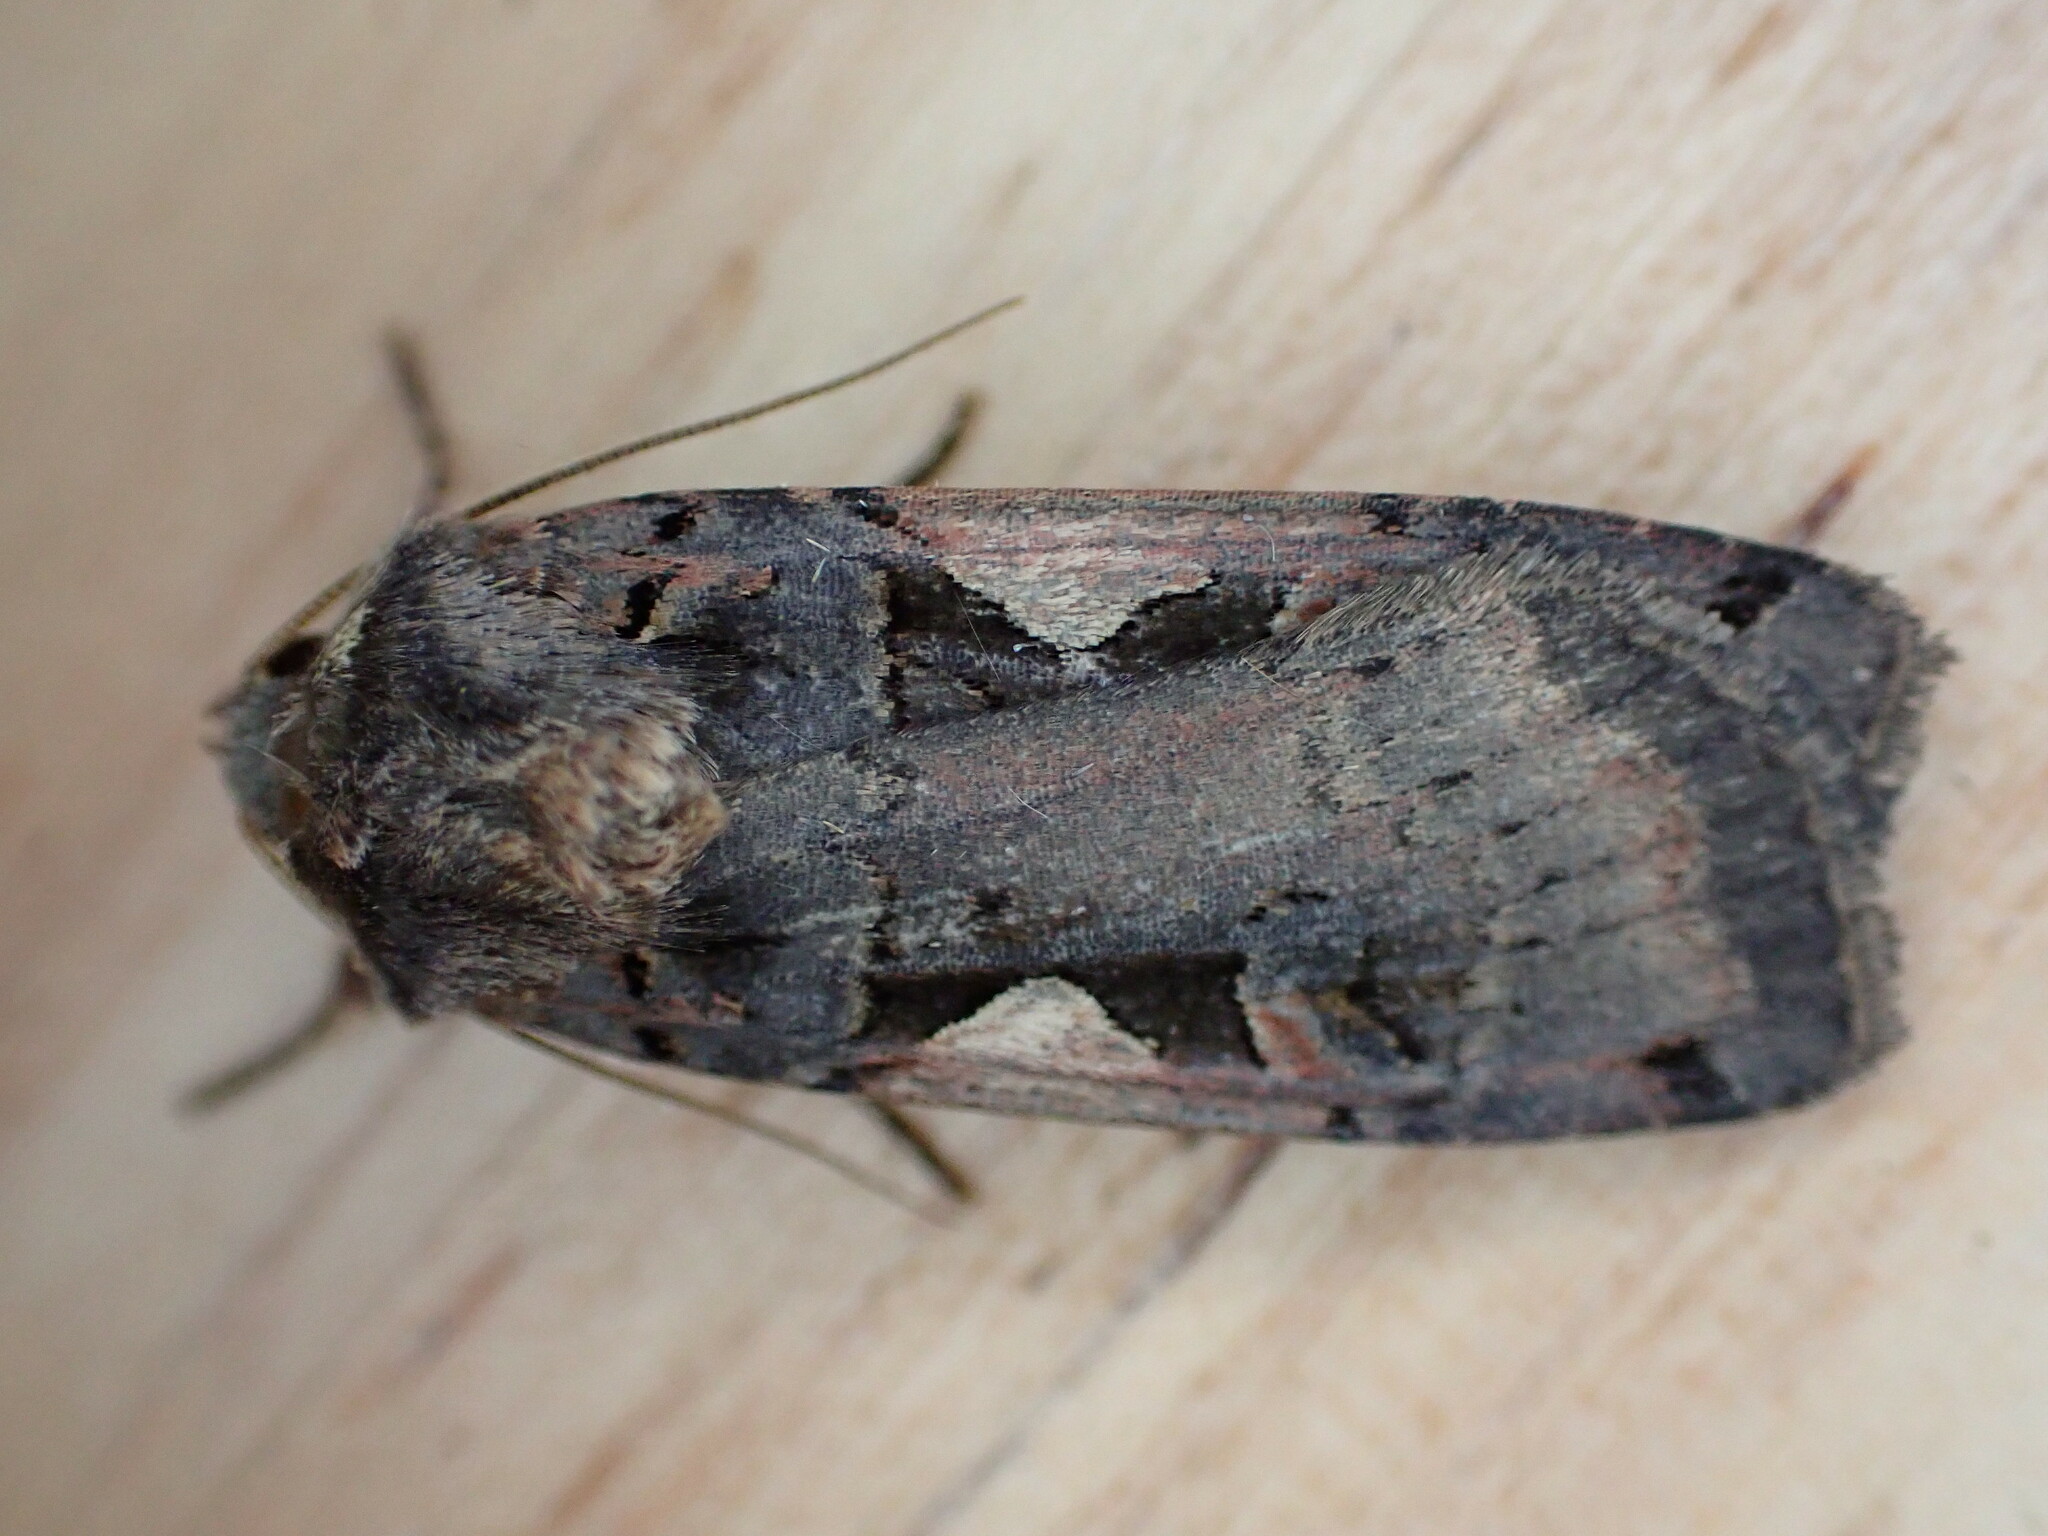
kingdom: Animalia
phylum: Arthropoda
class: Insecta
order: Lepidoptera
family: Noctuidae
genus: Xestia
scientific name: Xestia c-nigrum
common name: Setaceous hebrew character
